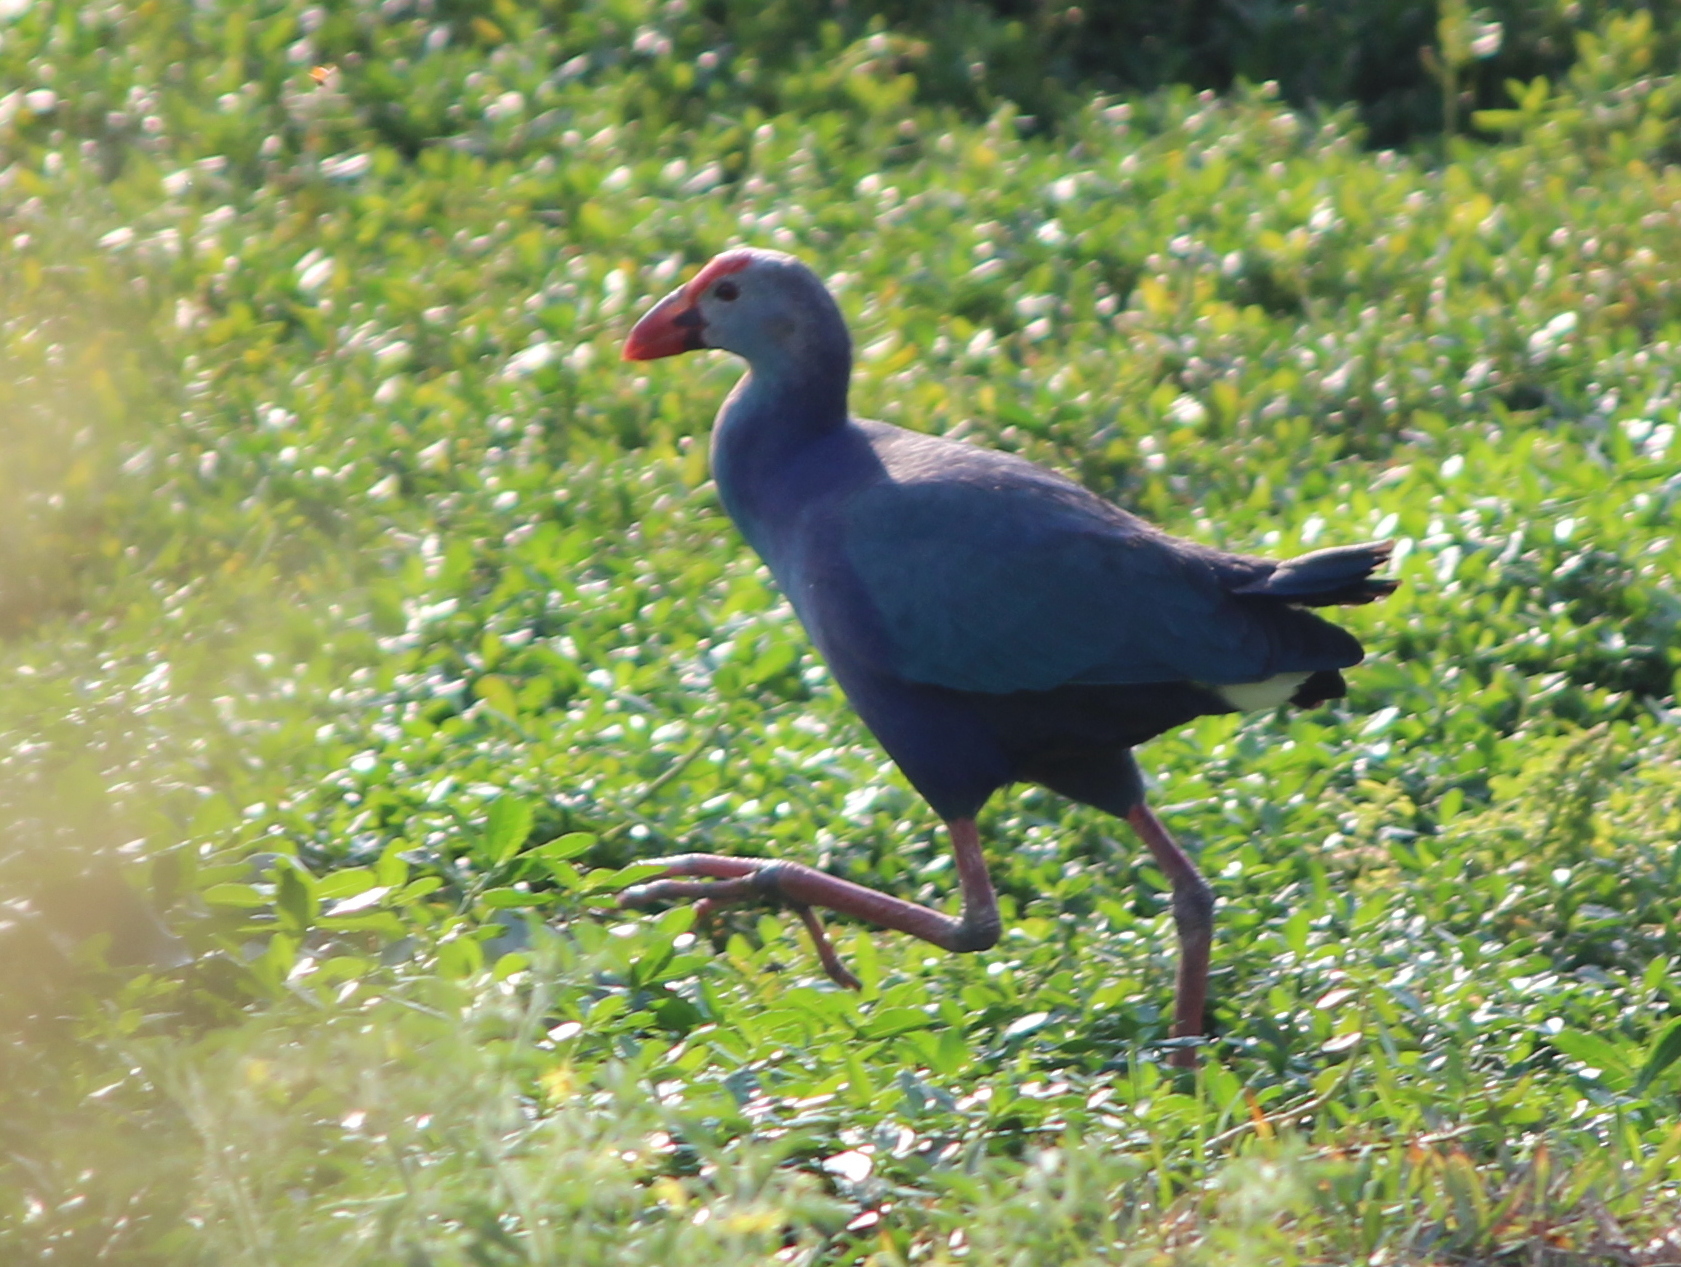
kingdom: Animalia
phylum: Chordata
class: Aves
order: Gruiformes
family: Rallidae
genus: Porphyrio
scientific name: Porphyrio porphyrio
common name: Purple swamphen
